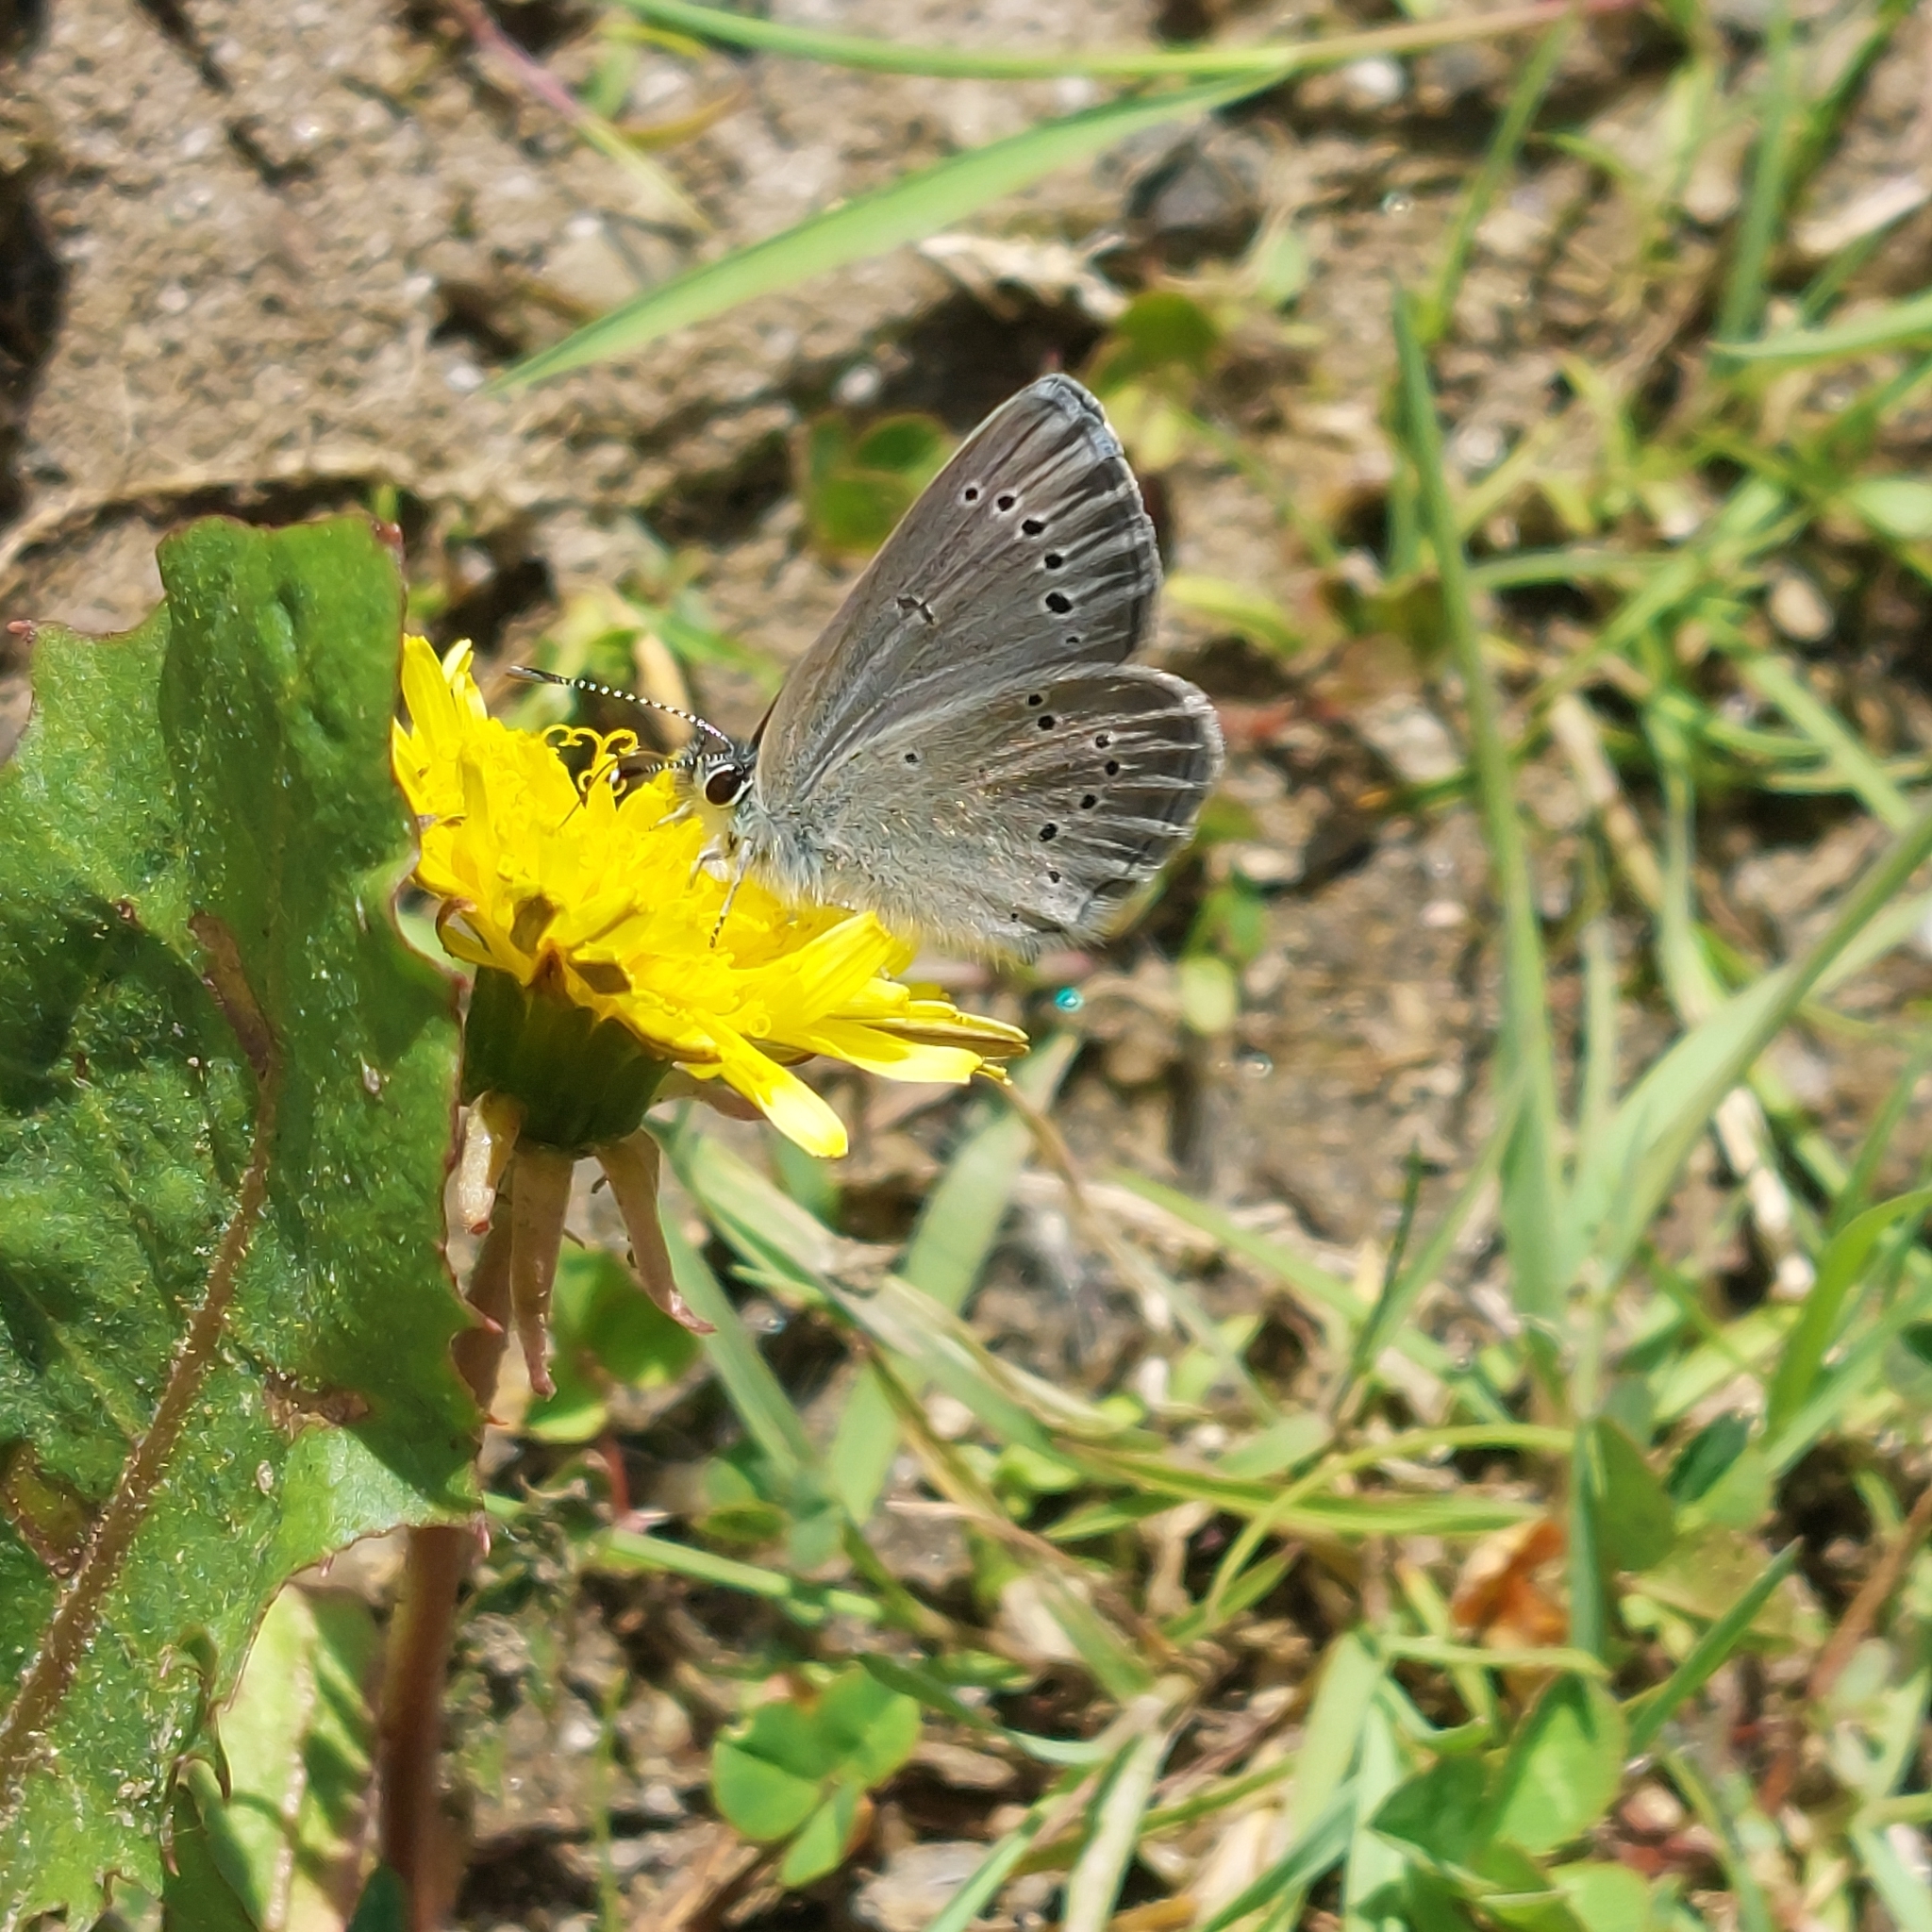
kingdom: Animalia
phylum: Arthropoda
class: Insecta
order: Lepidoptera
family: Lycaenidae
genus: Glaucopsyche
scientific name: Glaucopsyche lygdamus
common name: Silvery blue
